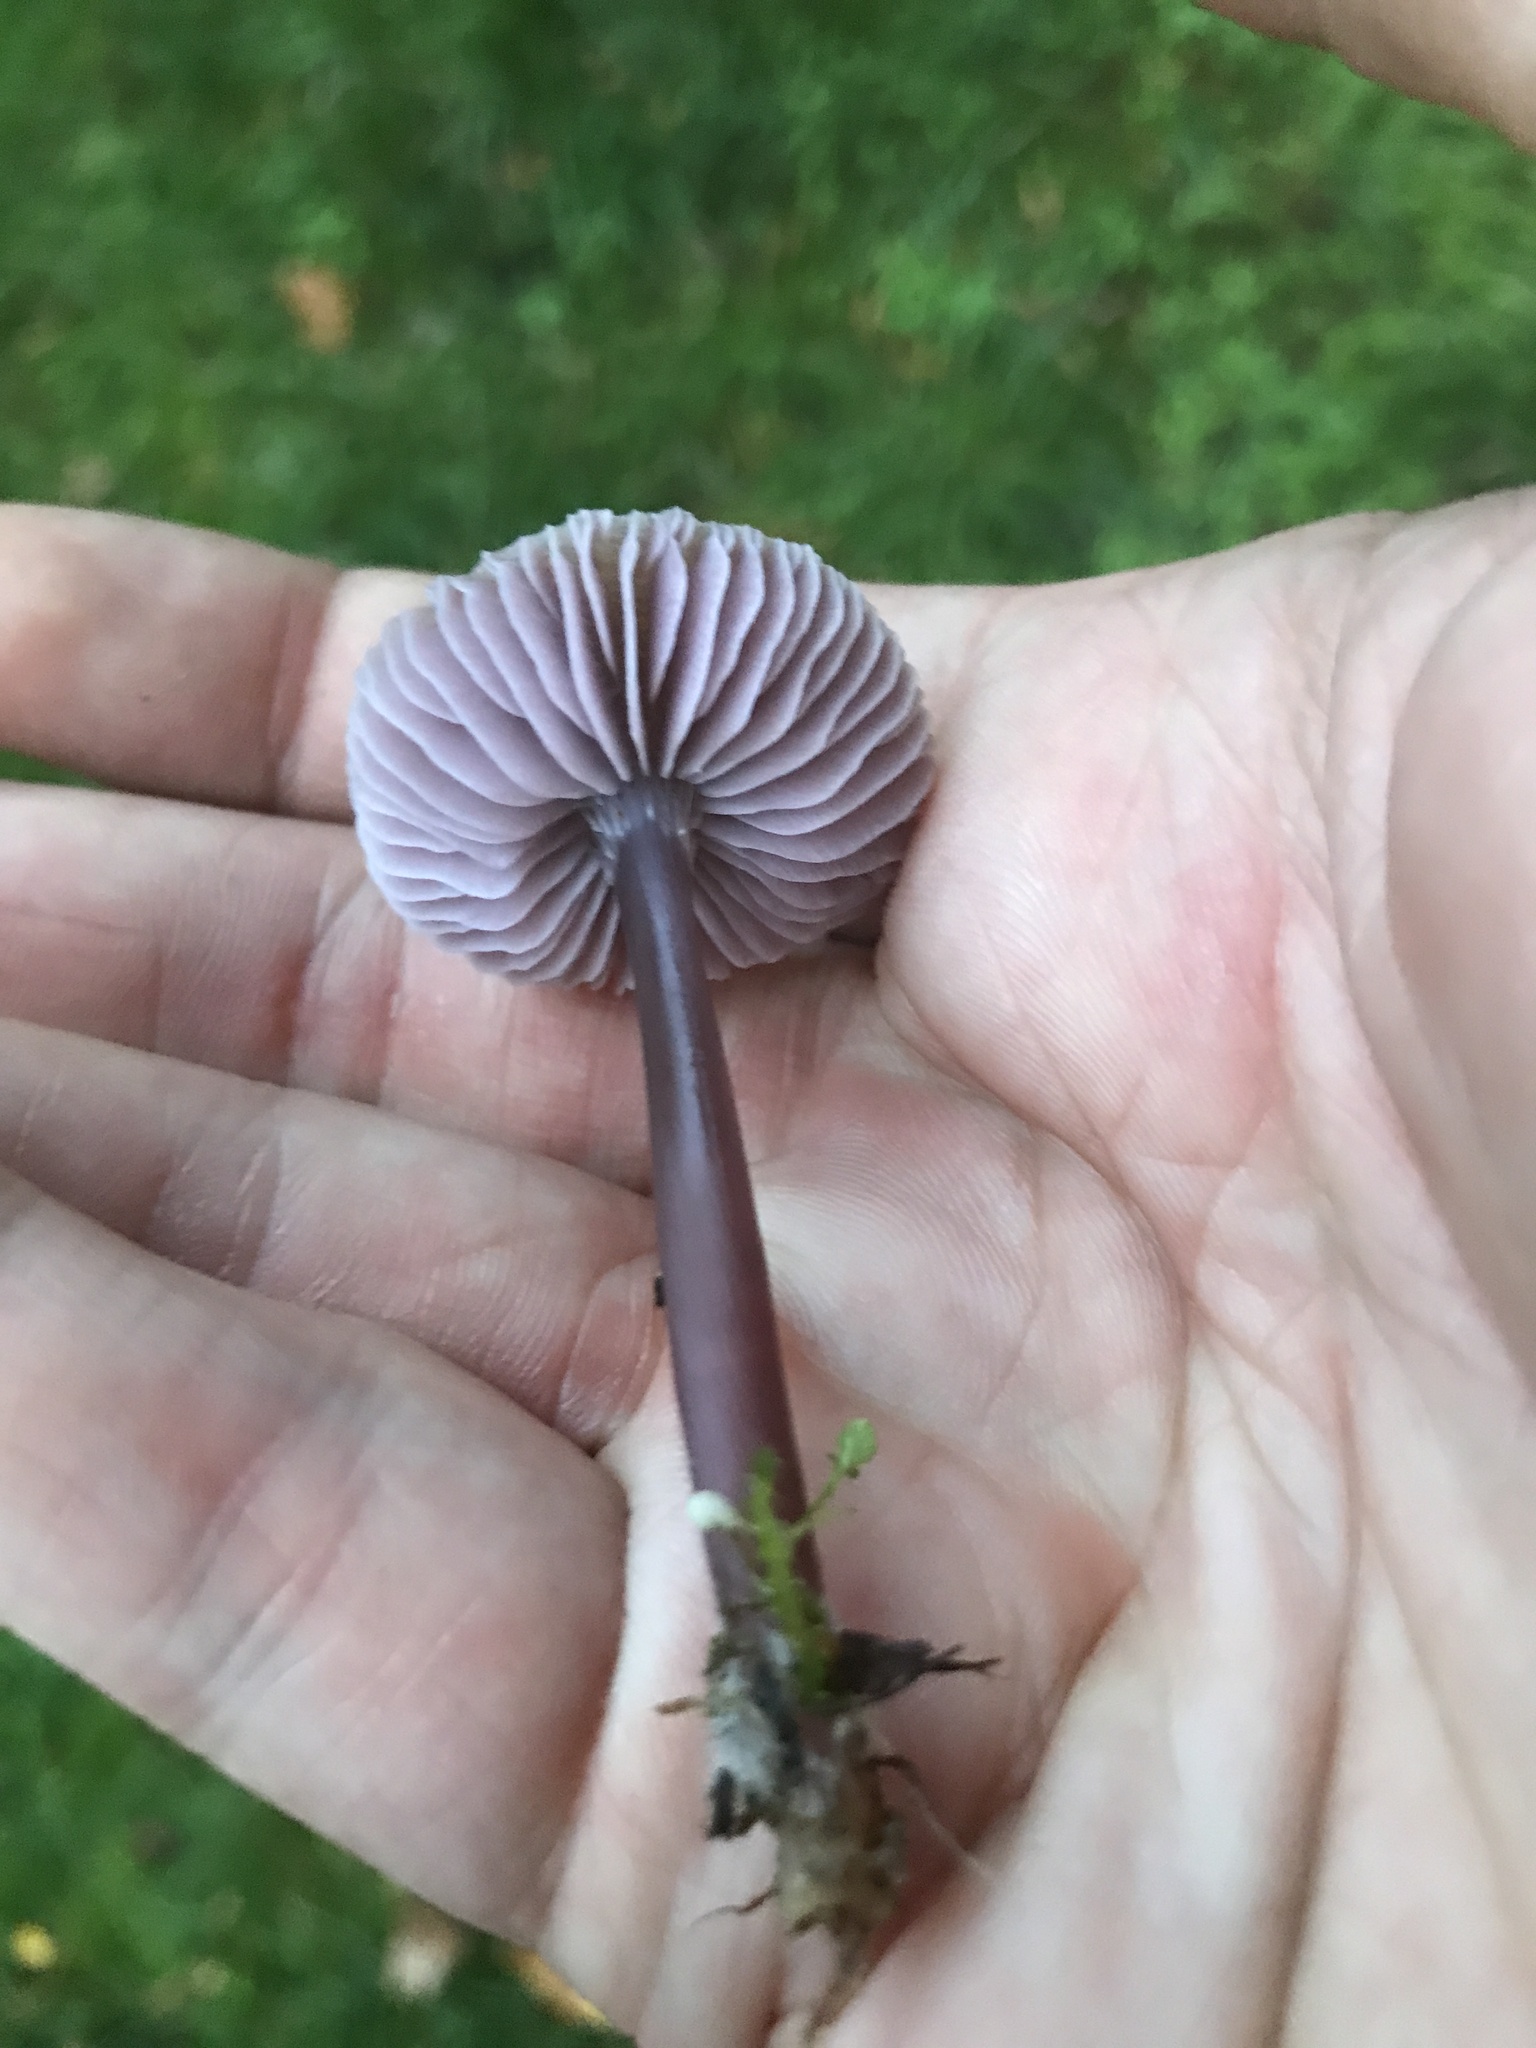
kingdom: Fungi
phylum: Basidiomycota
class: Agaricomycetes
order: Agaricales
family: Mycenaceae
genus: Mycena
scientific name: Mycena pura
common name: Lilac bonnet
